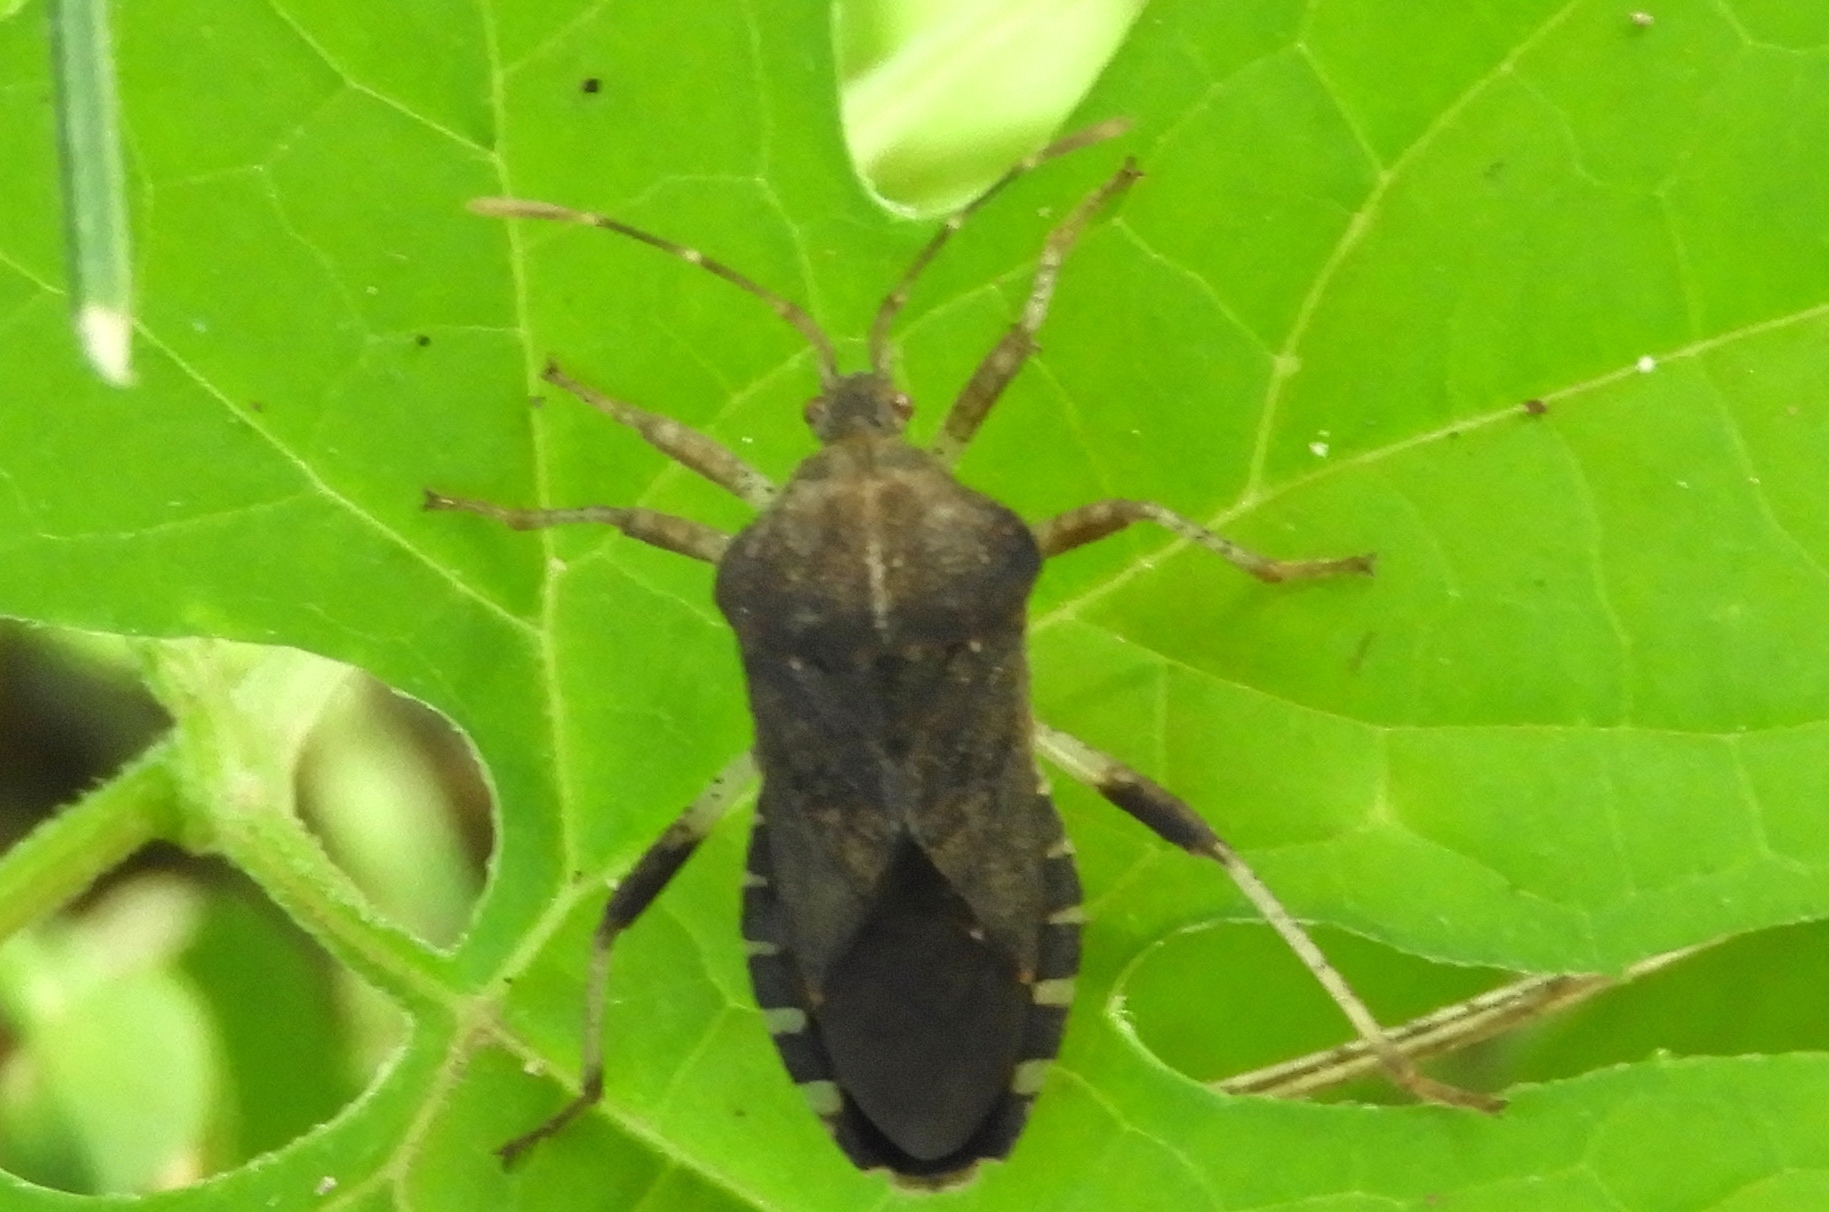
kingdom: Animalia
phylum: Arthropoda
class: Insecta
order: Hemiptera
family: Coreidae
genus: Anasa
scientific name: Anasa scorbutica
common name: Squash bug
